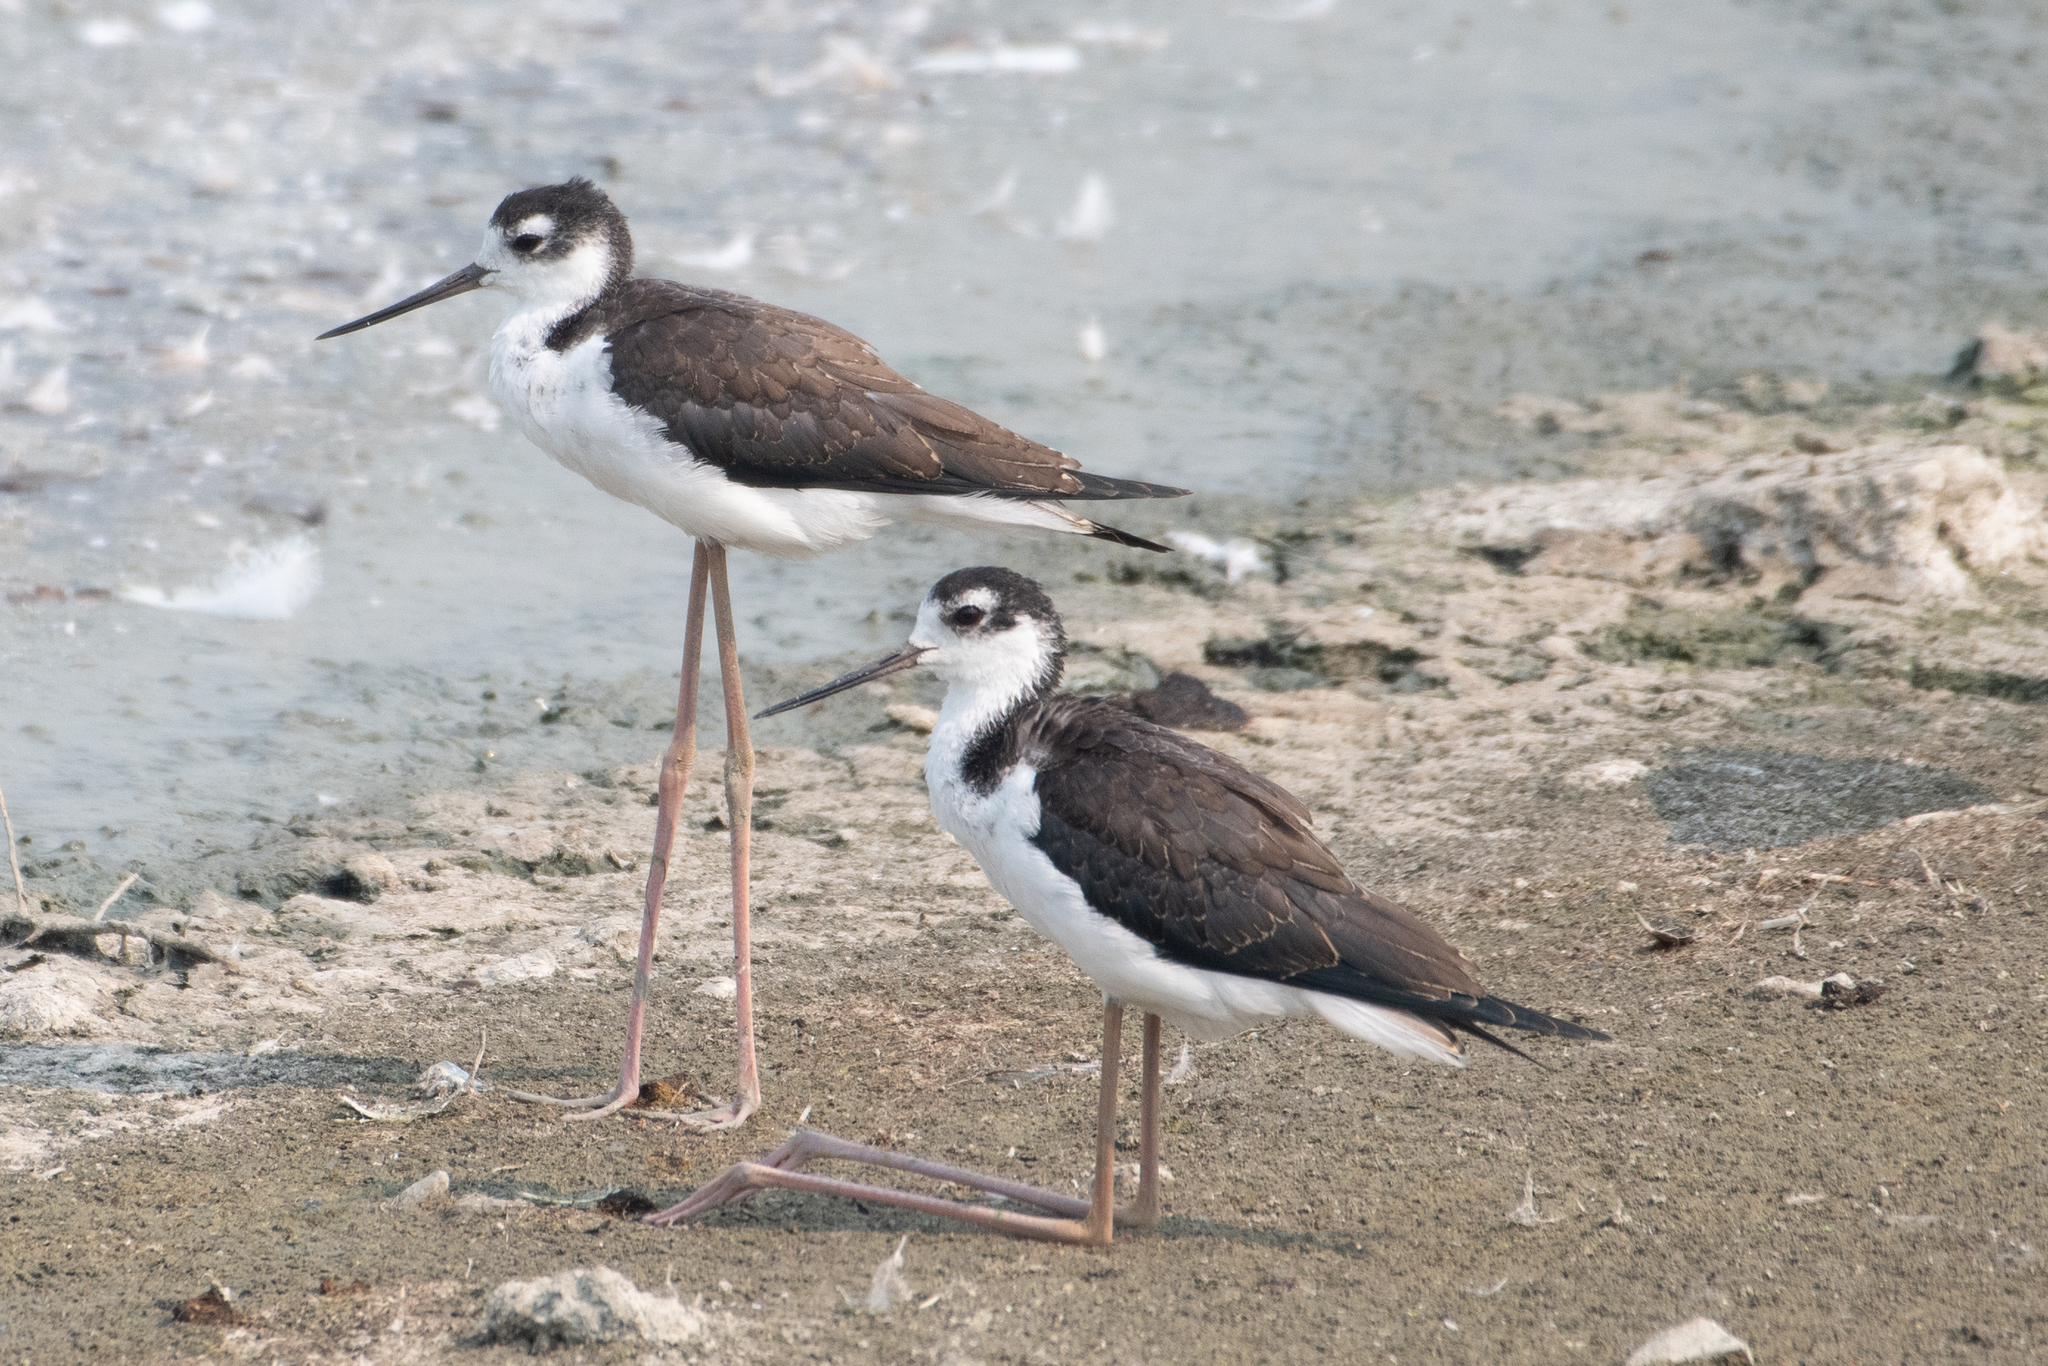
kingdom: Animalia
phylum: Chordata
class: Aves
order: Charadriiformes
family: Recurvirostridae
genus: Himantopus
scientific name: Himantopus mexicanus
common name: Black-necked stilt
